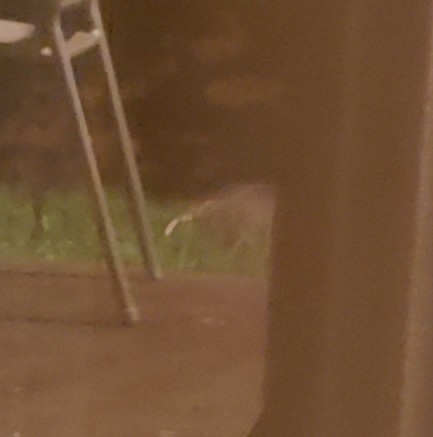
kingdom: Animalia
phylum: Chordata
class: Mammalia
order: Didelphimorphia
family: Didelphidae
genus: Didelphis
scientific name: Didelphis virginiana
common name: Virginia opossum
